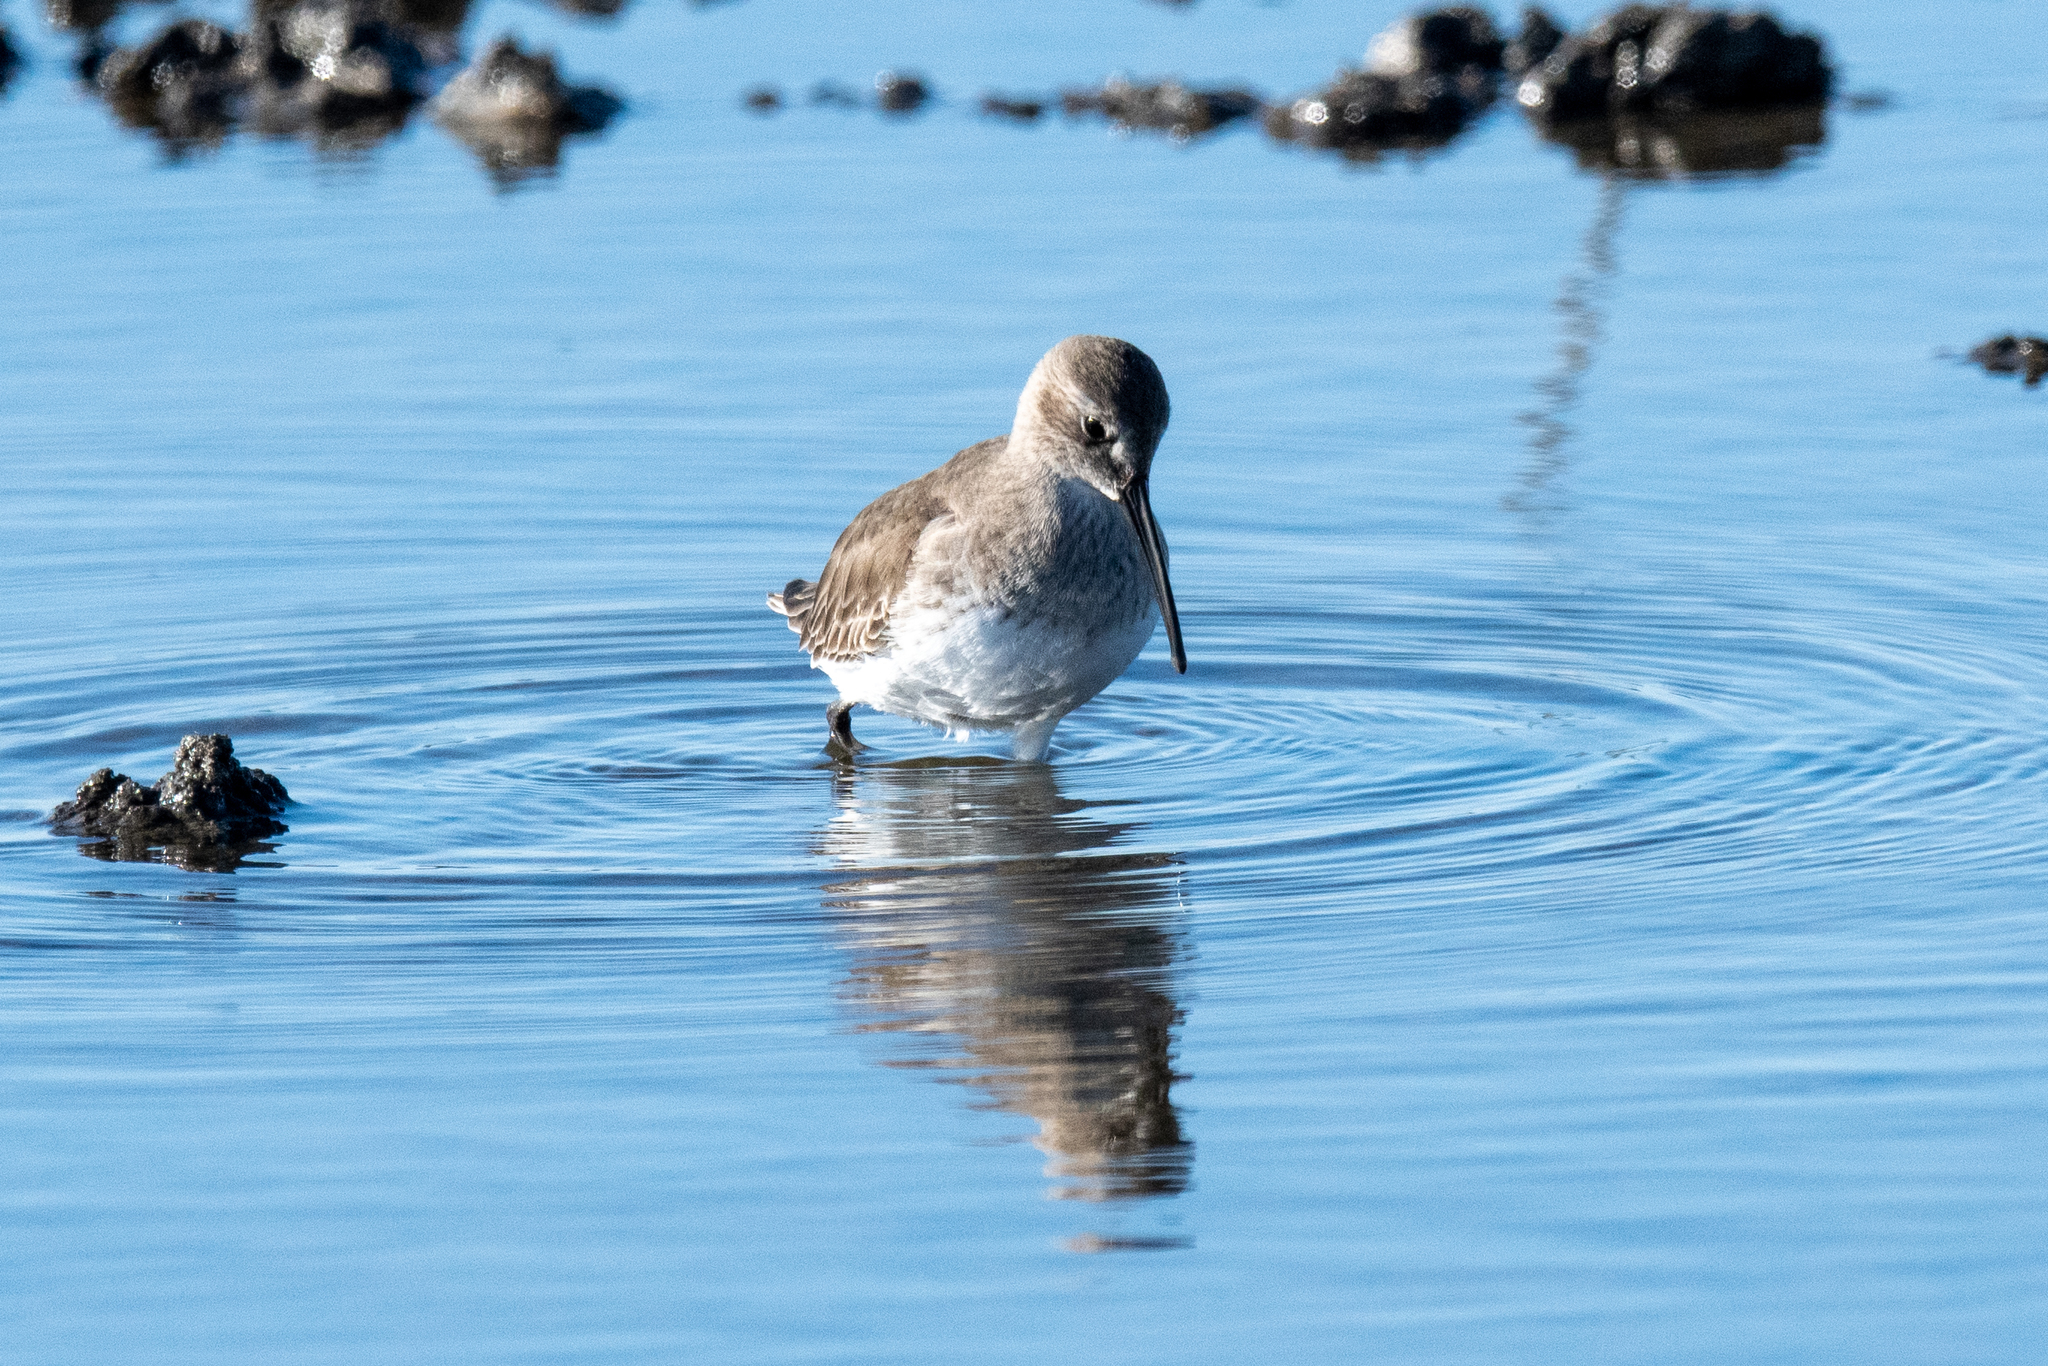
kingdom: Animalia
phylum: Chordata
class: Aves
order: Charadriiformes
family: Scolopacidae
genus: Calidris
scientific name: Calidris alpina
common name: Dunlin
